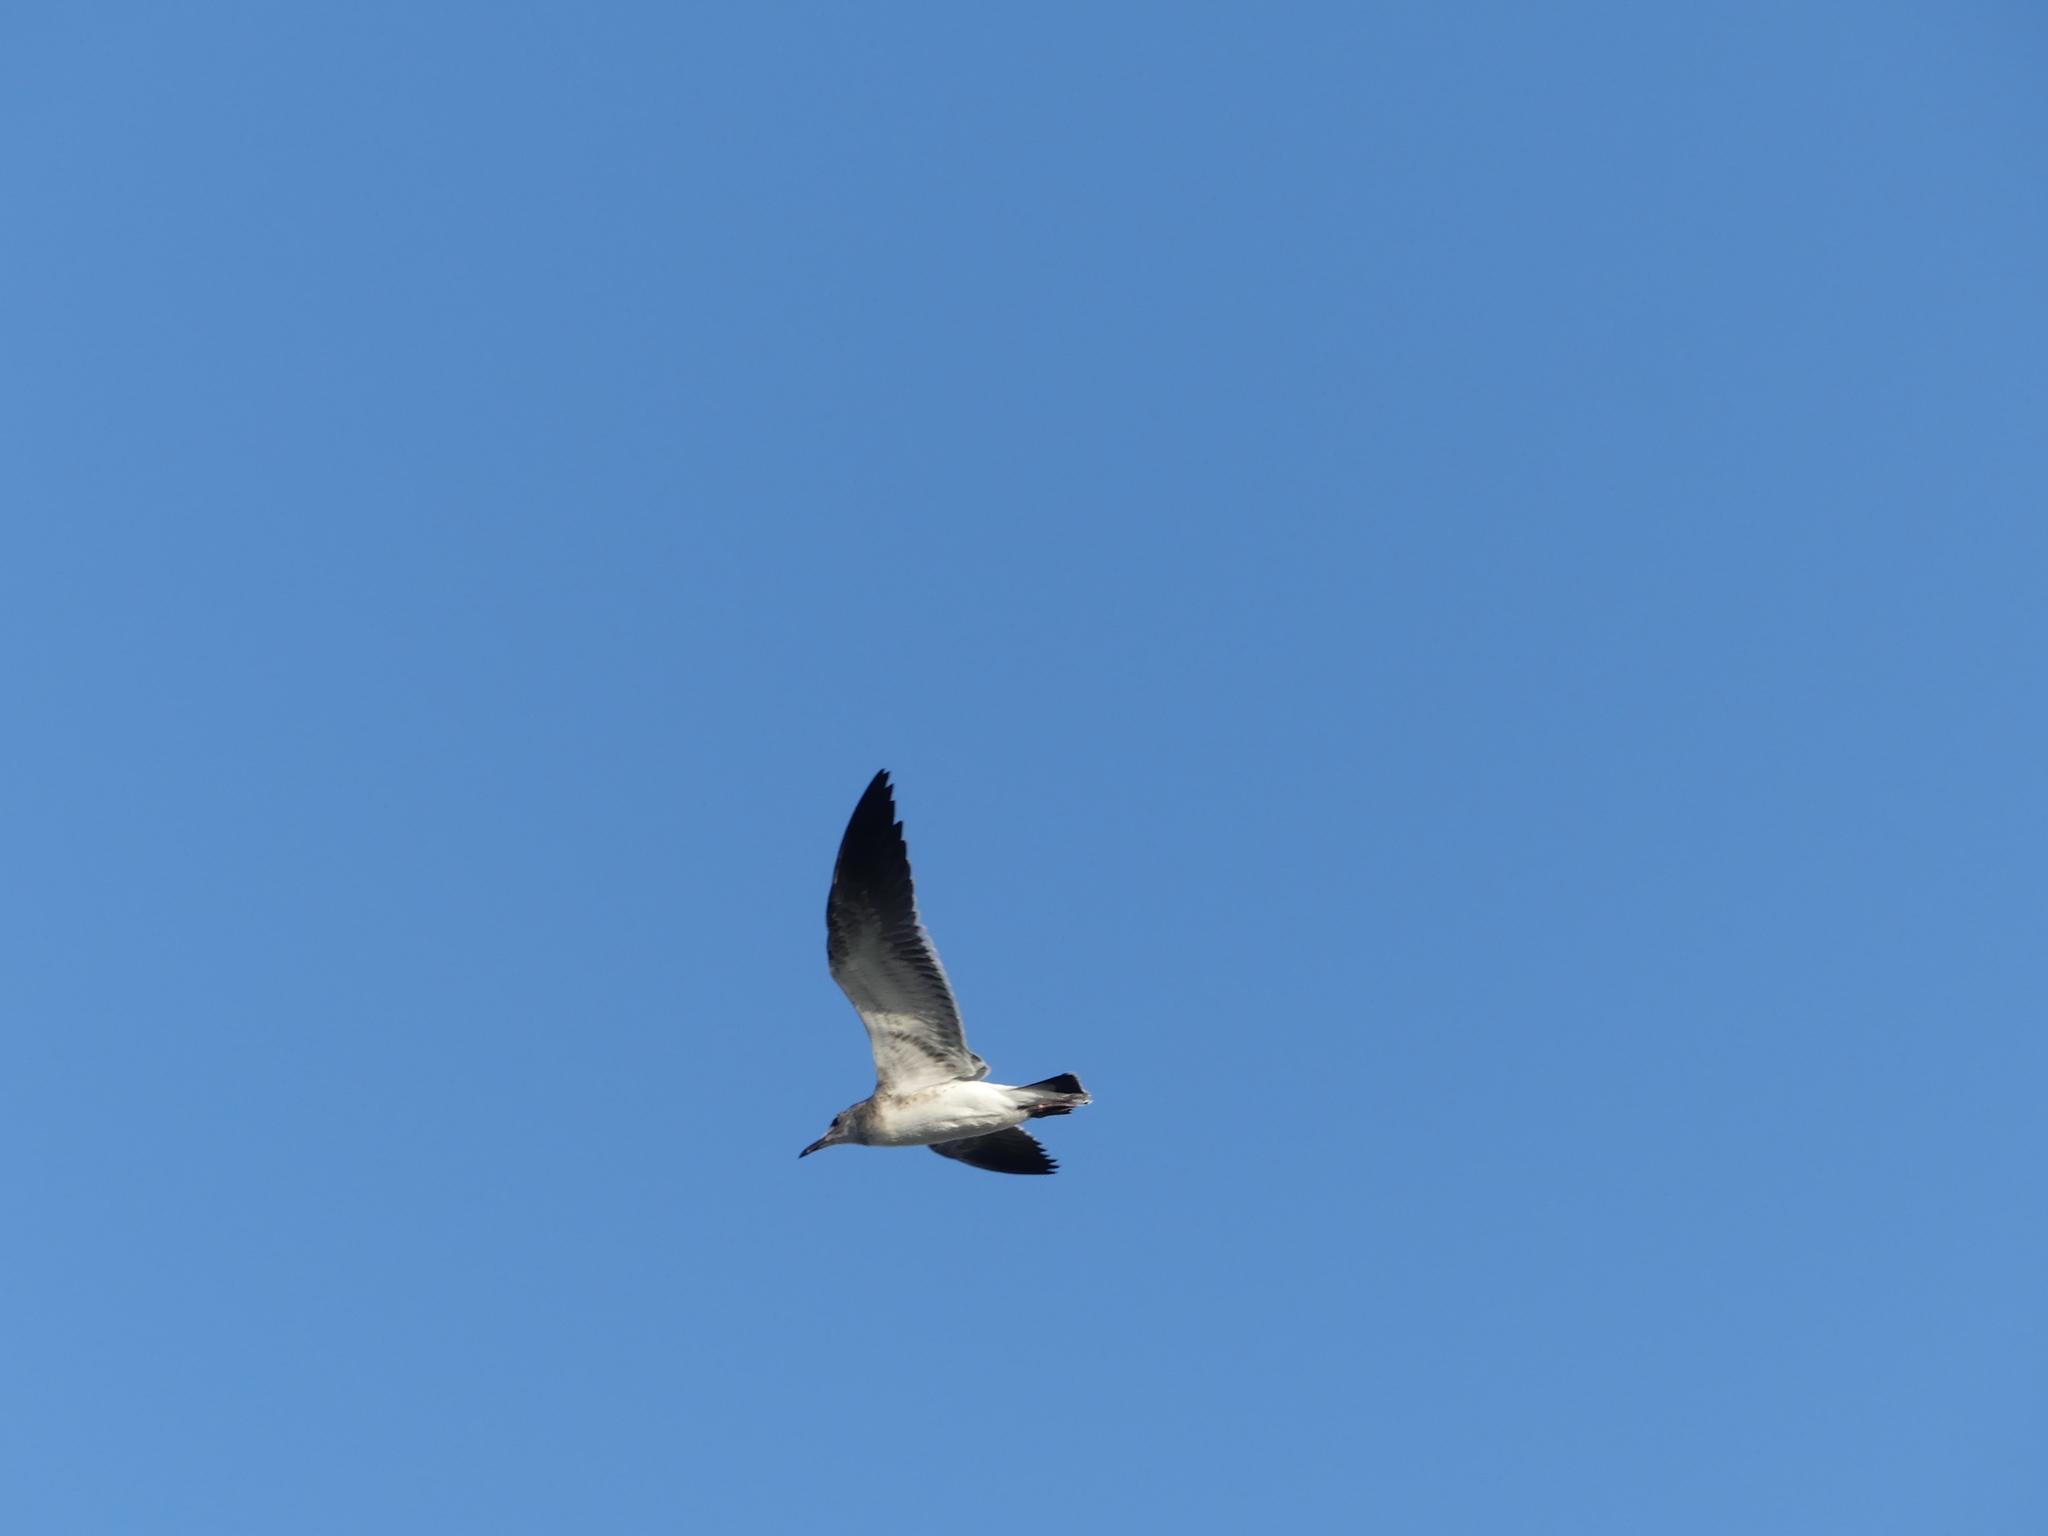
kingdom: Animalia
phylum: Chordata
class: Aves
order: Charadriiformes
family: Laridae
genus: Leucophaeus
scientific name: Leucophaeus atricilla
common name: Laughing gull
